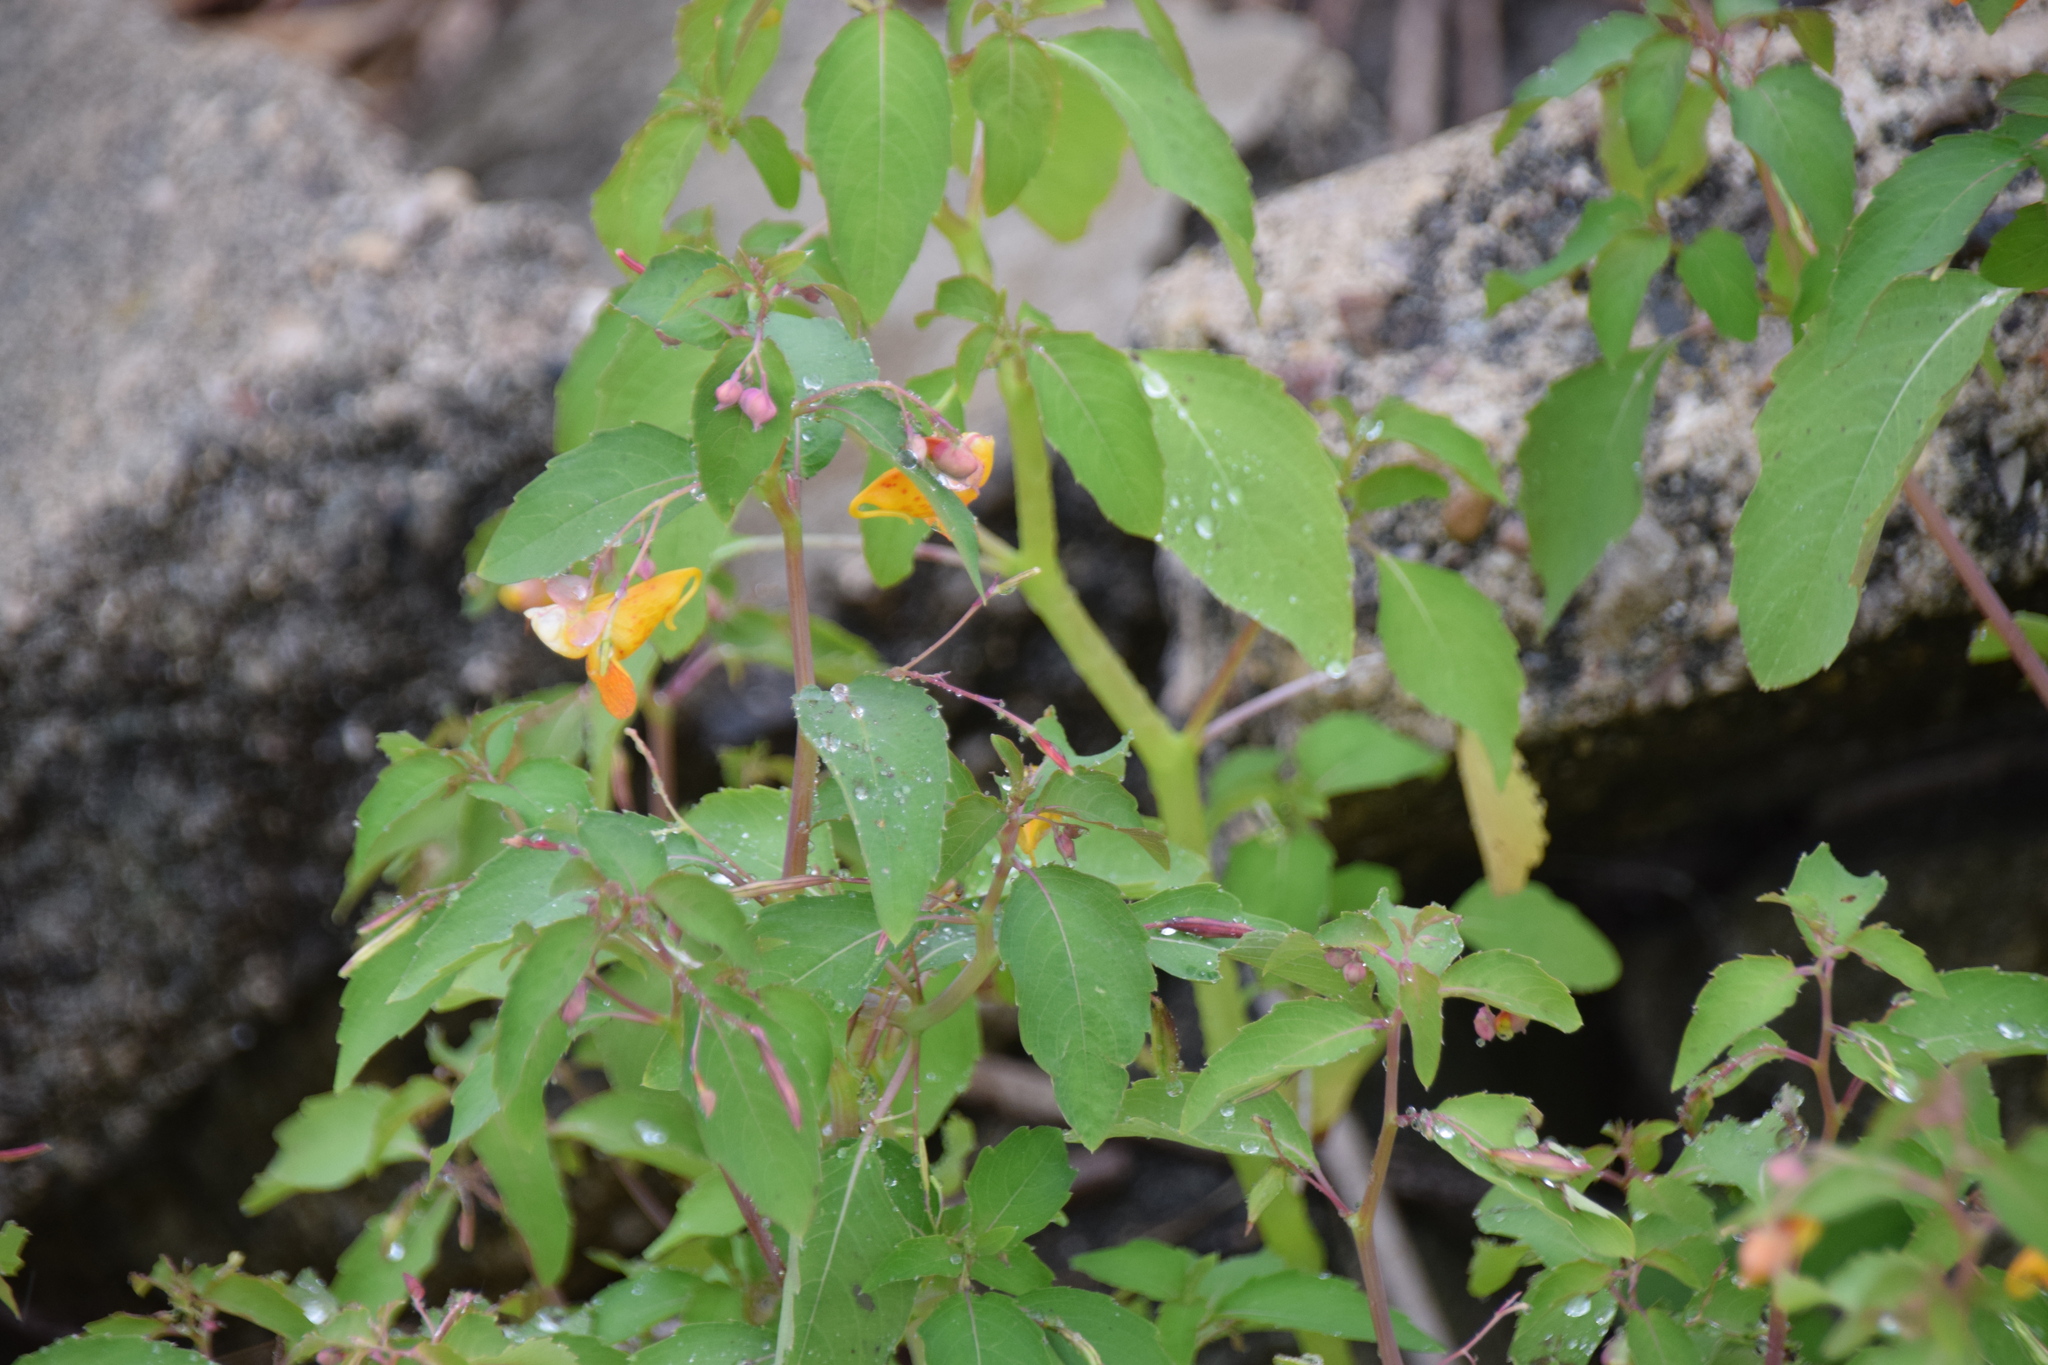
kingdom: Plantae
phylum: Tracheophyta
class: Magnoliopsida
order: Ericales
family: Balsaminaceae
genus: Impatiens
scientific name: Impatiens capensis
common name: Orange balsam
